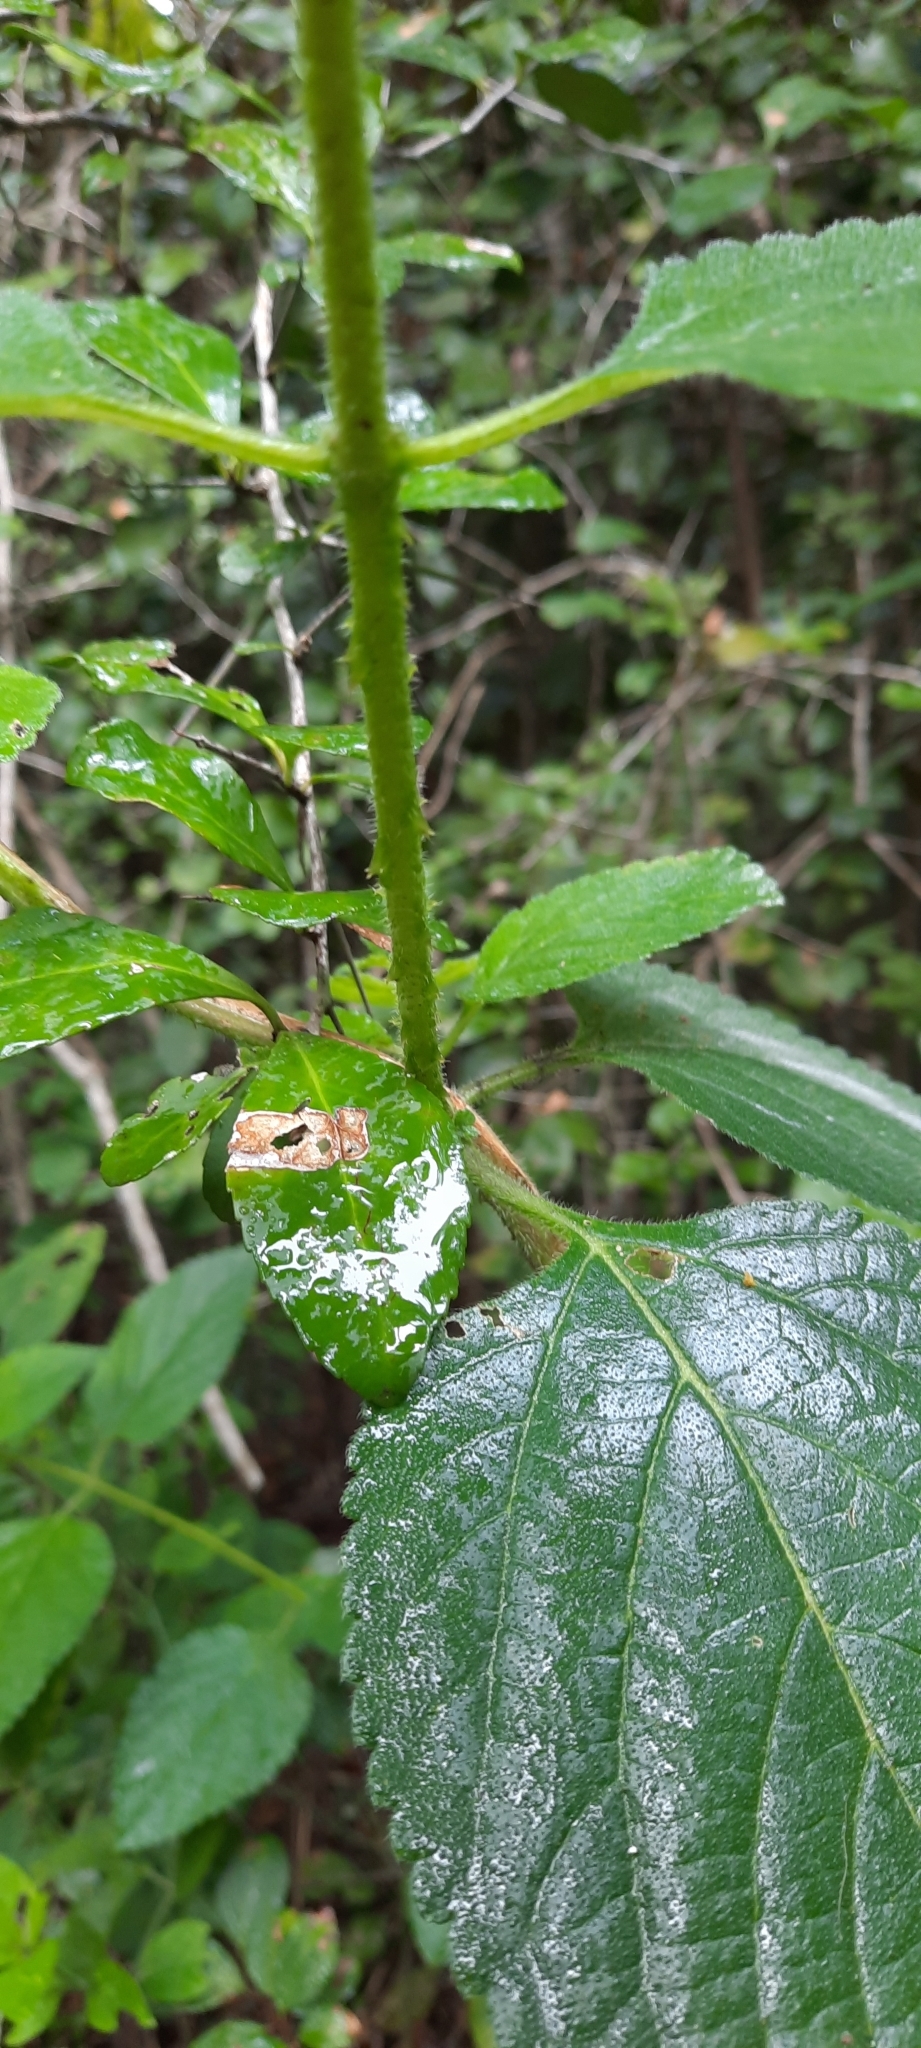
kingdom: Plantae
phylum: Tracheophyta
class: Magnoliopsida
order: Lamiales
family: Verbenaceae
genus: Lantana
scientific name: Lantana camara
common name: Lantana
